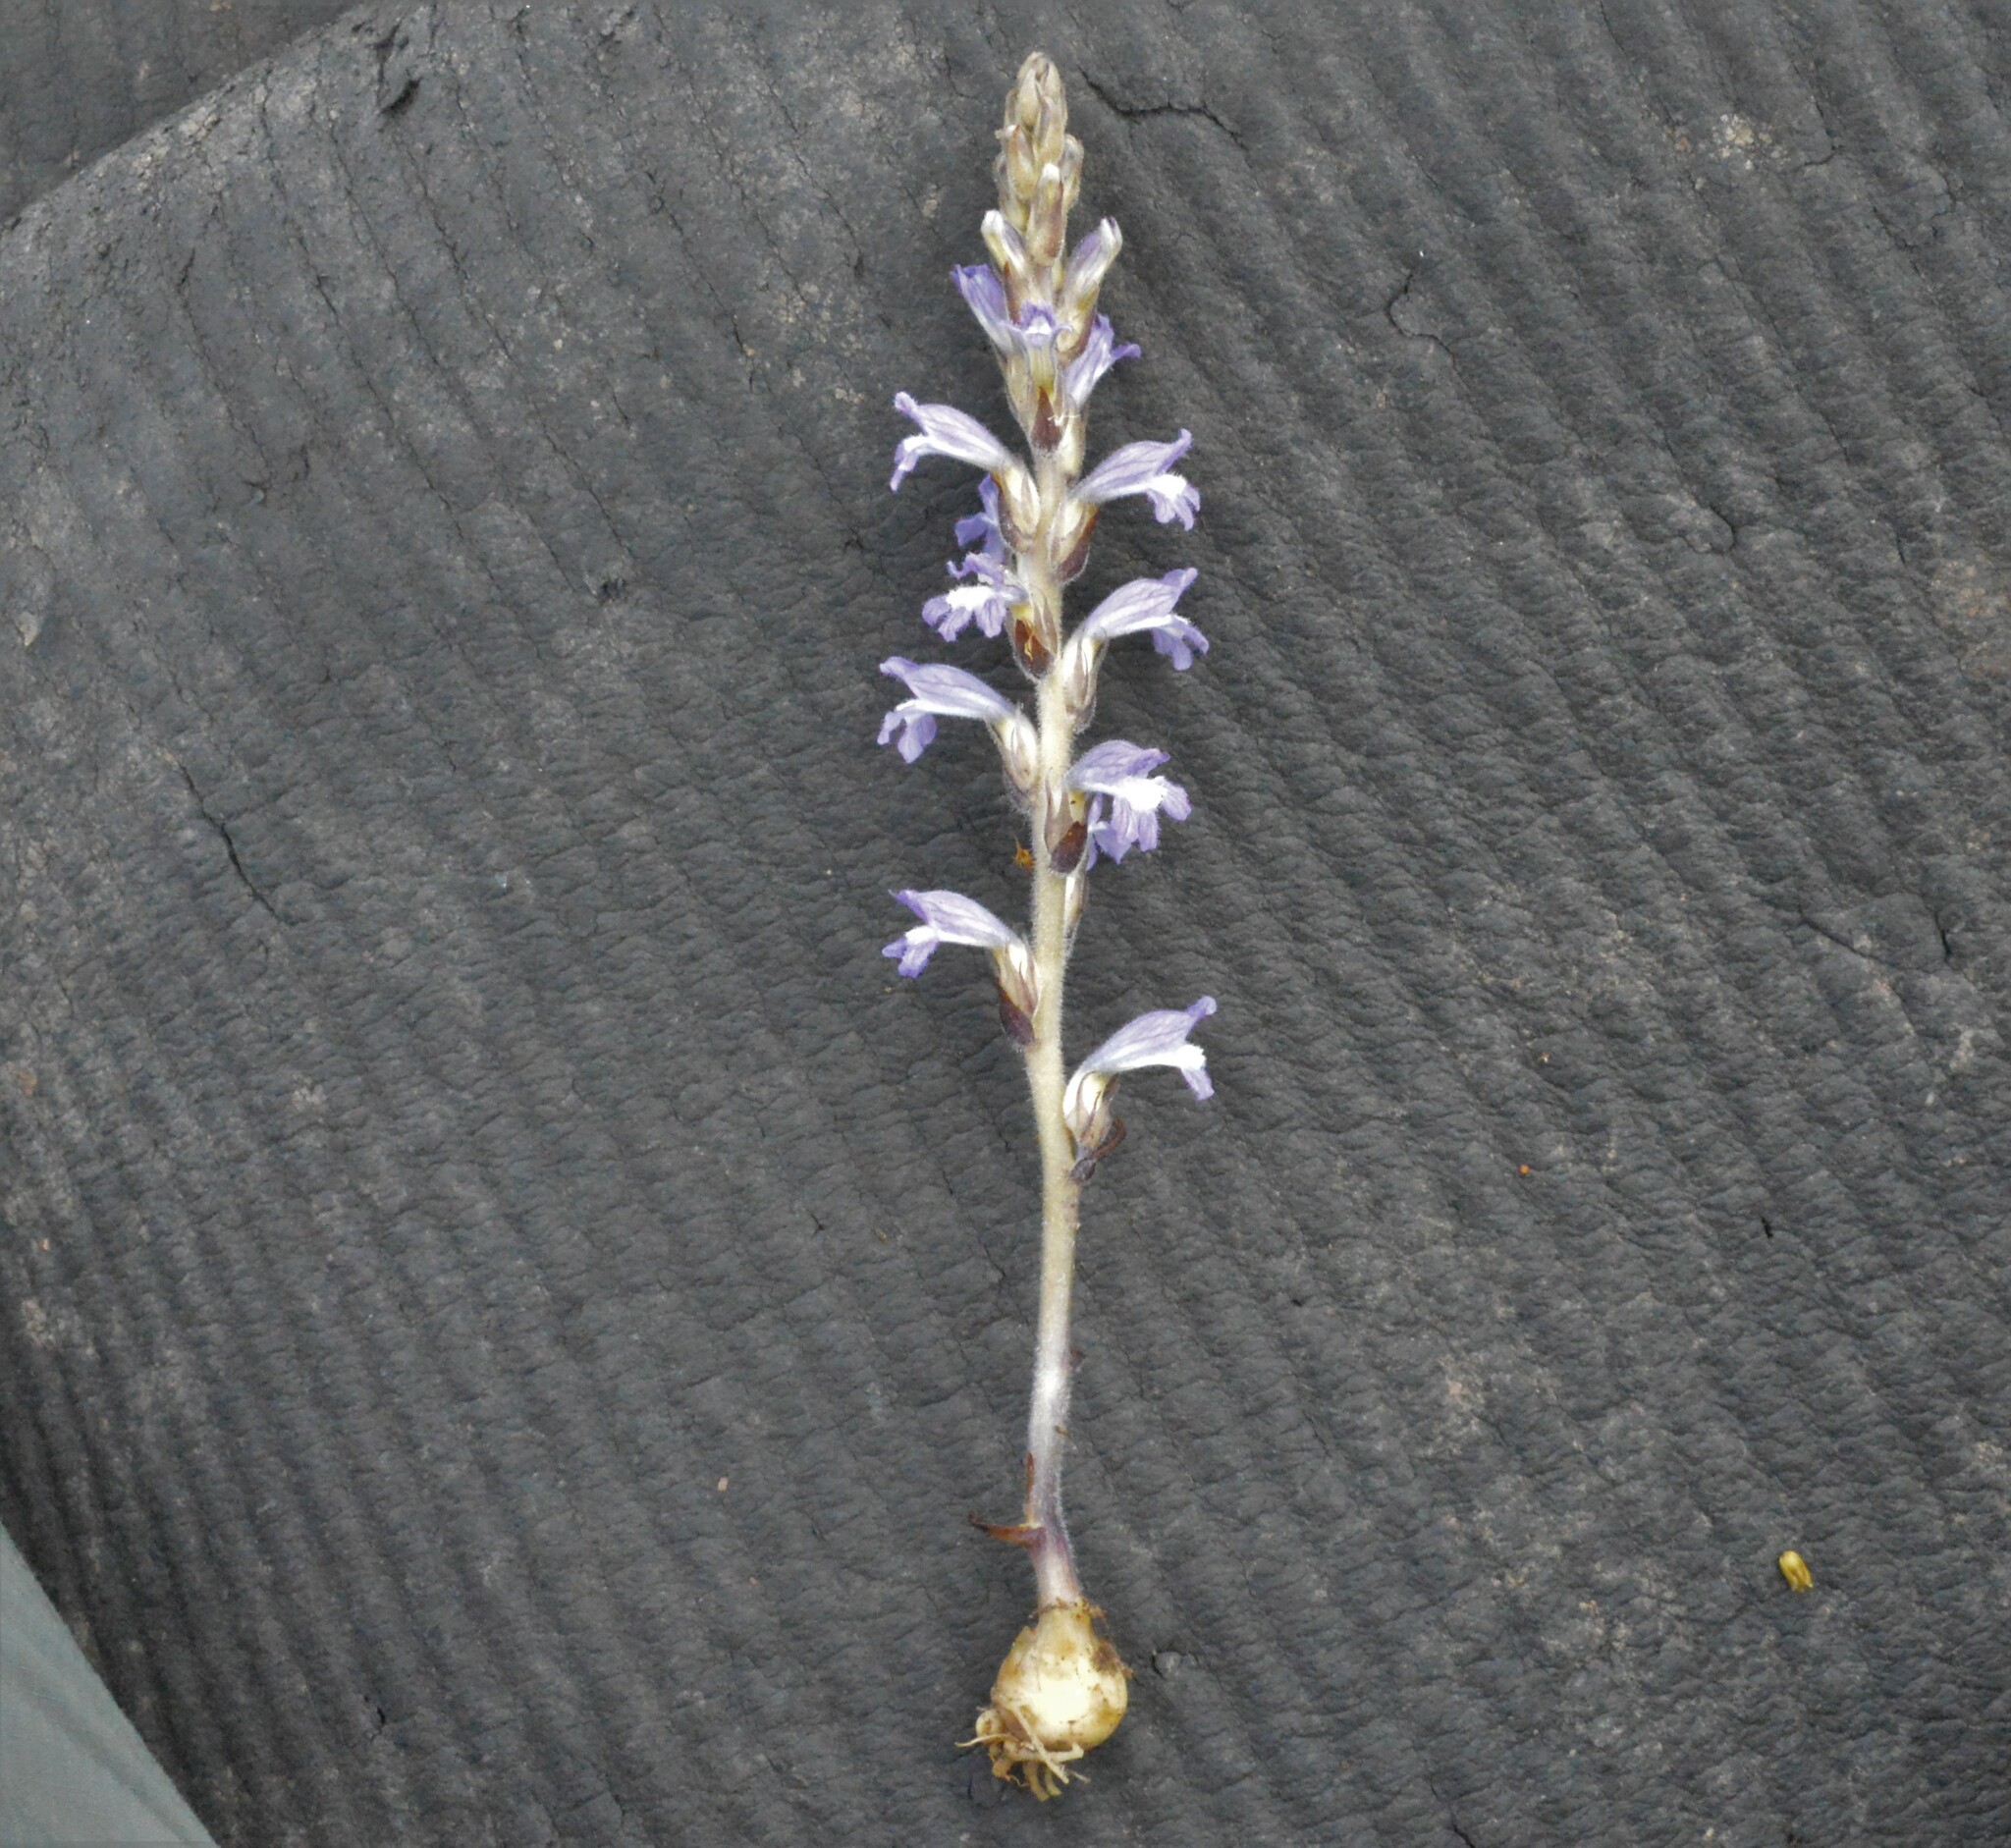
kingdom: Plantae
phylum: Tracheophyta
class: Magnoliopsida
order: Lamiales
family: Orobanchaceae
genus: Phelipanche
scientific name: Phelipanche mutelii
